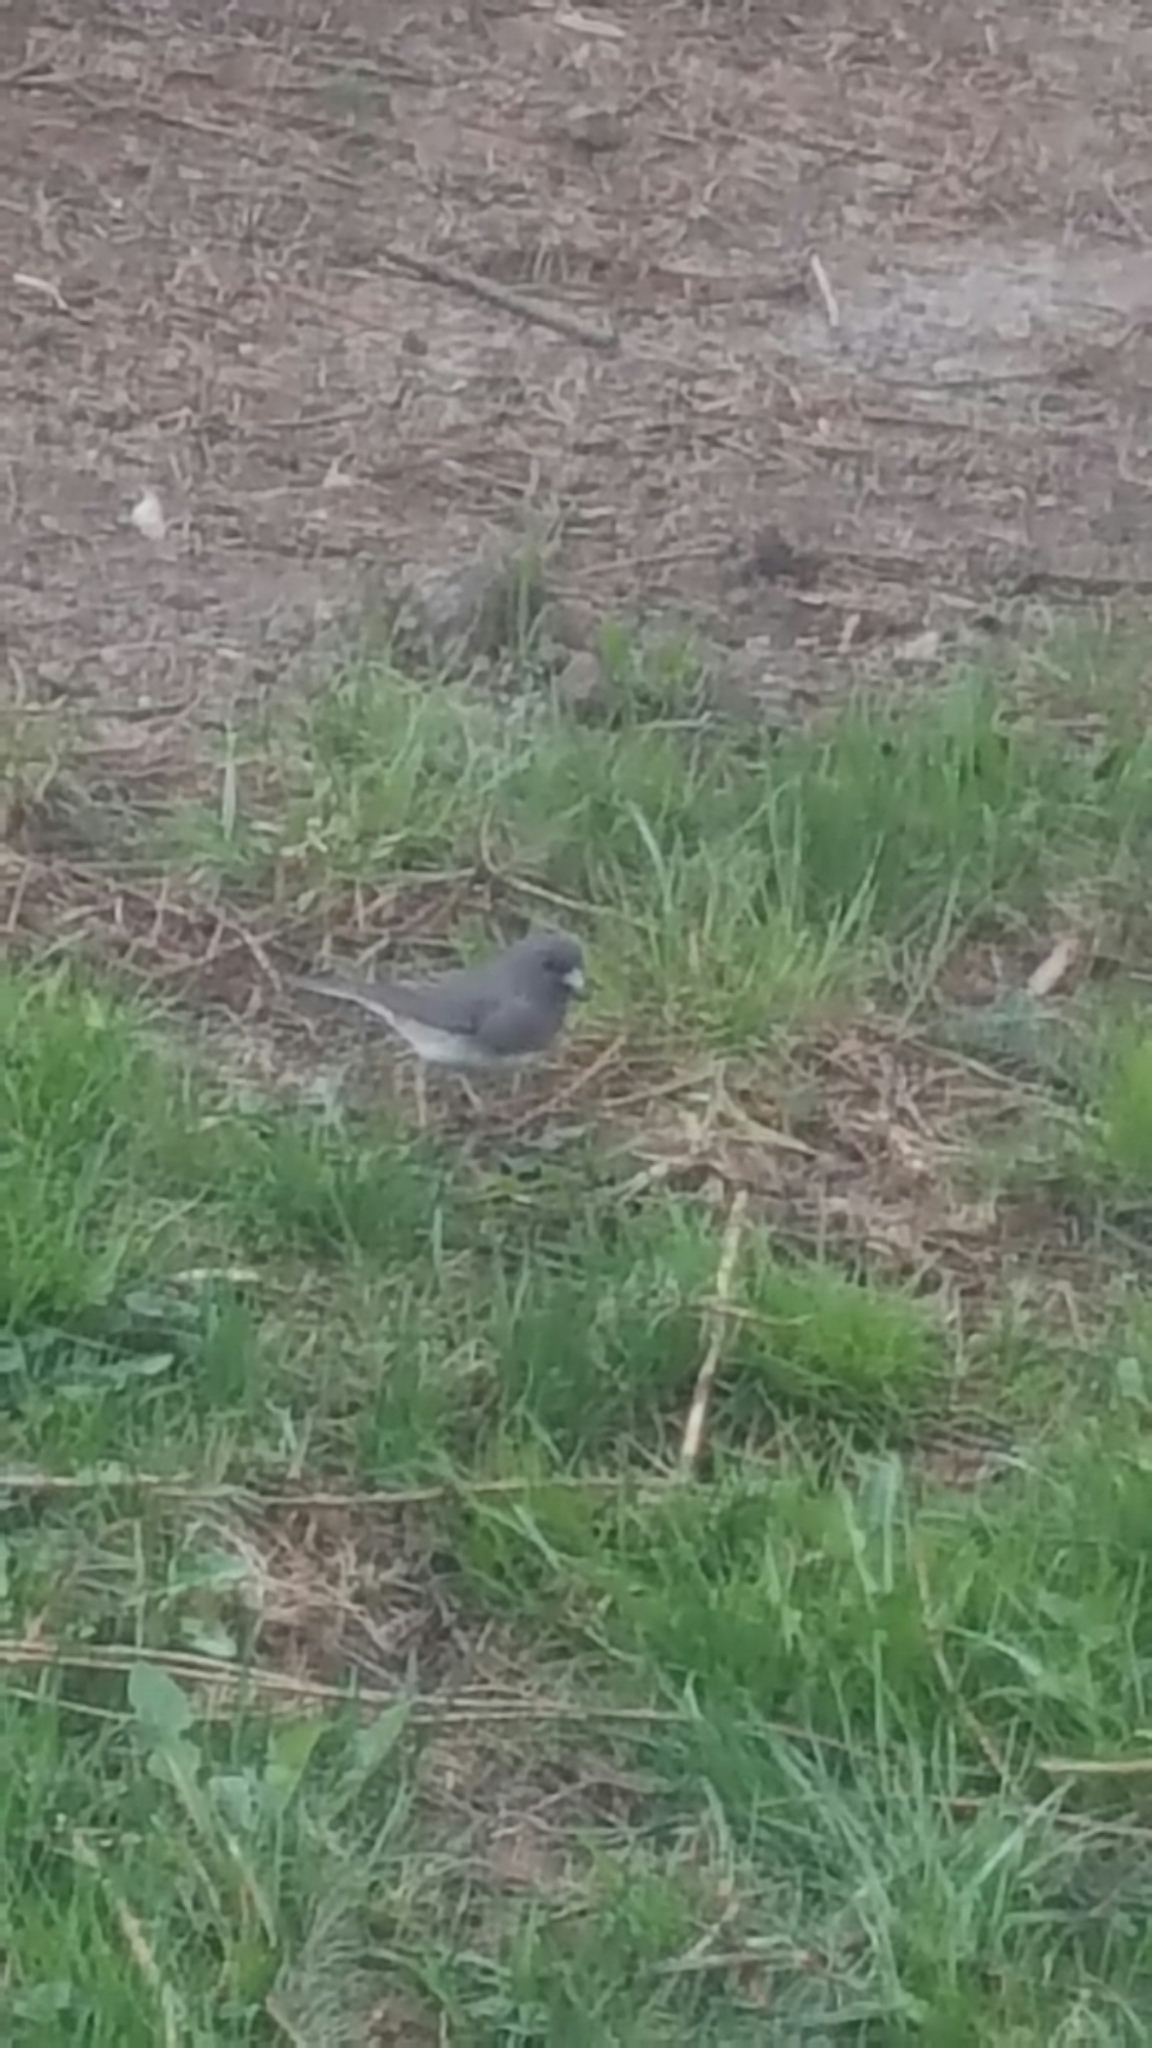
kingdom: Animalia
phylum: Chordata
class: Aves
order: Passeriformes
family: Passerellidae
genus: Junco
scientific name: Junco hyemalis
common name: Dark-eyed junco
